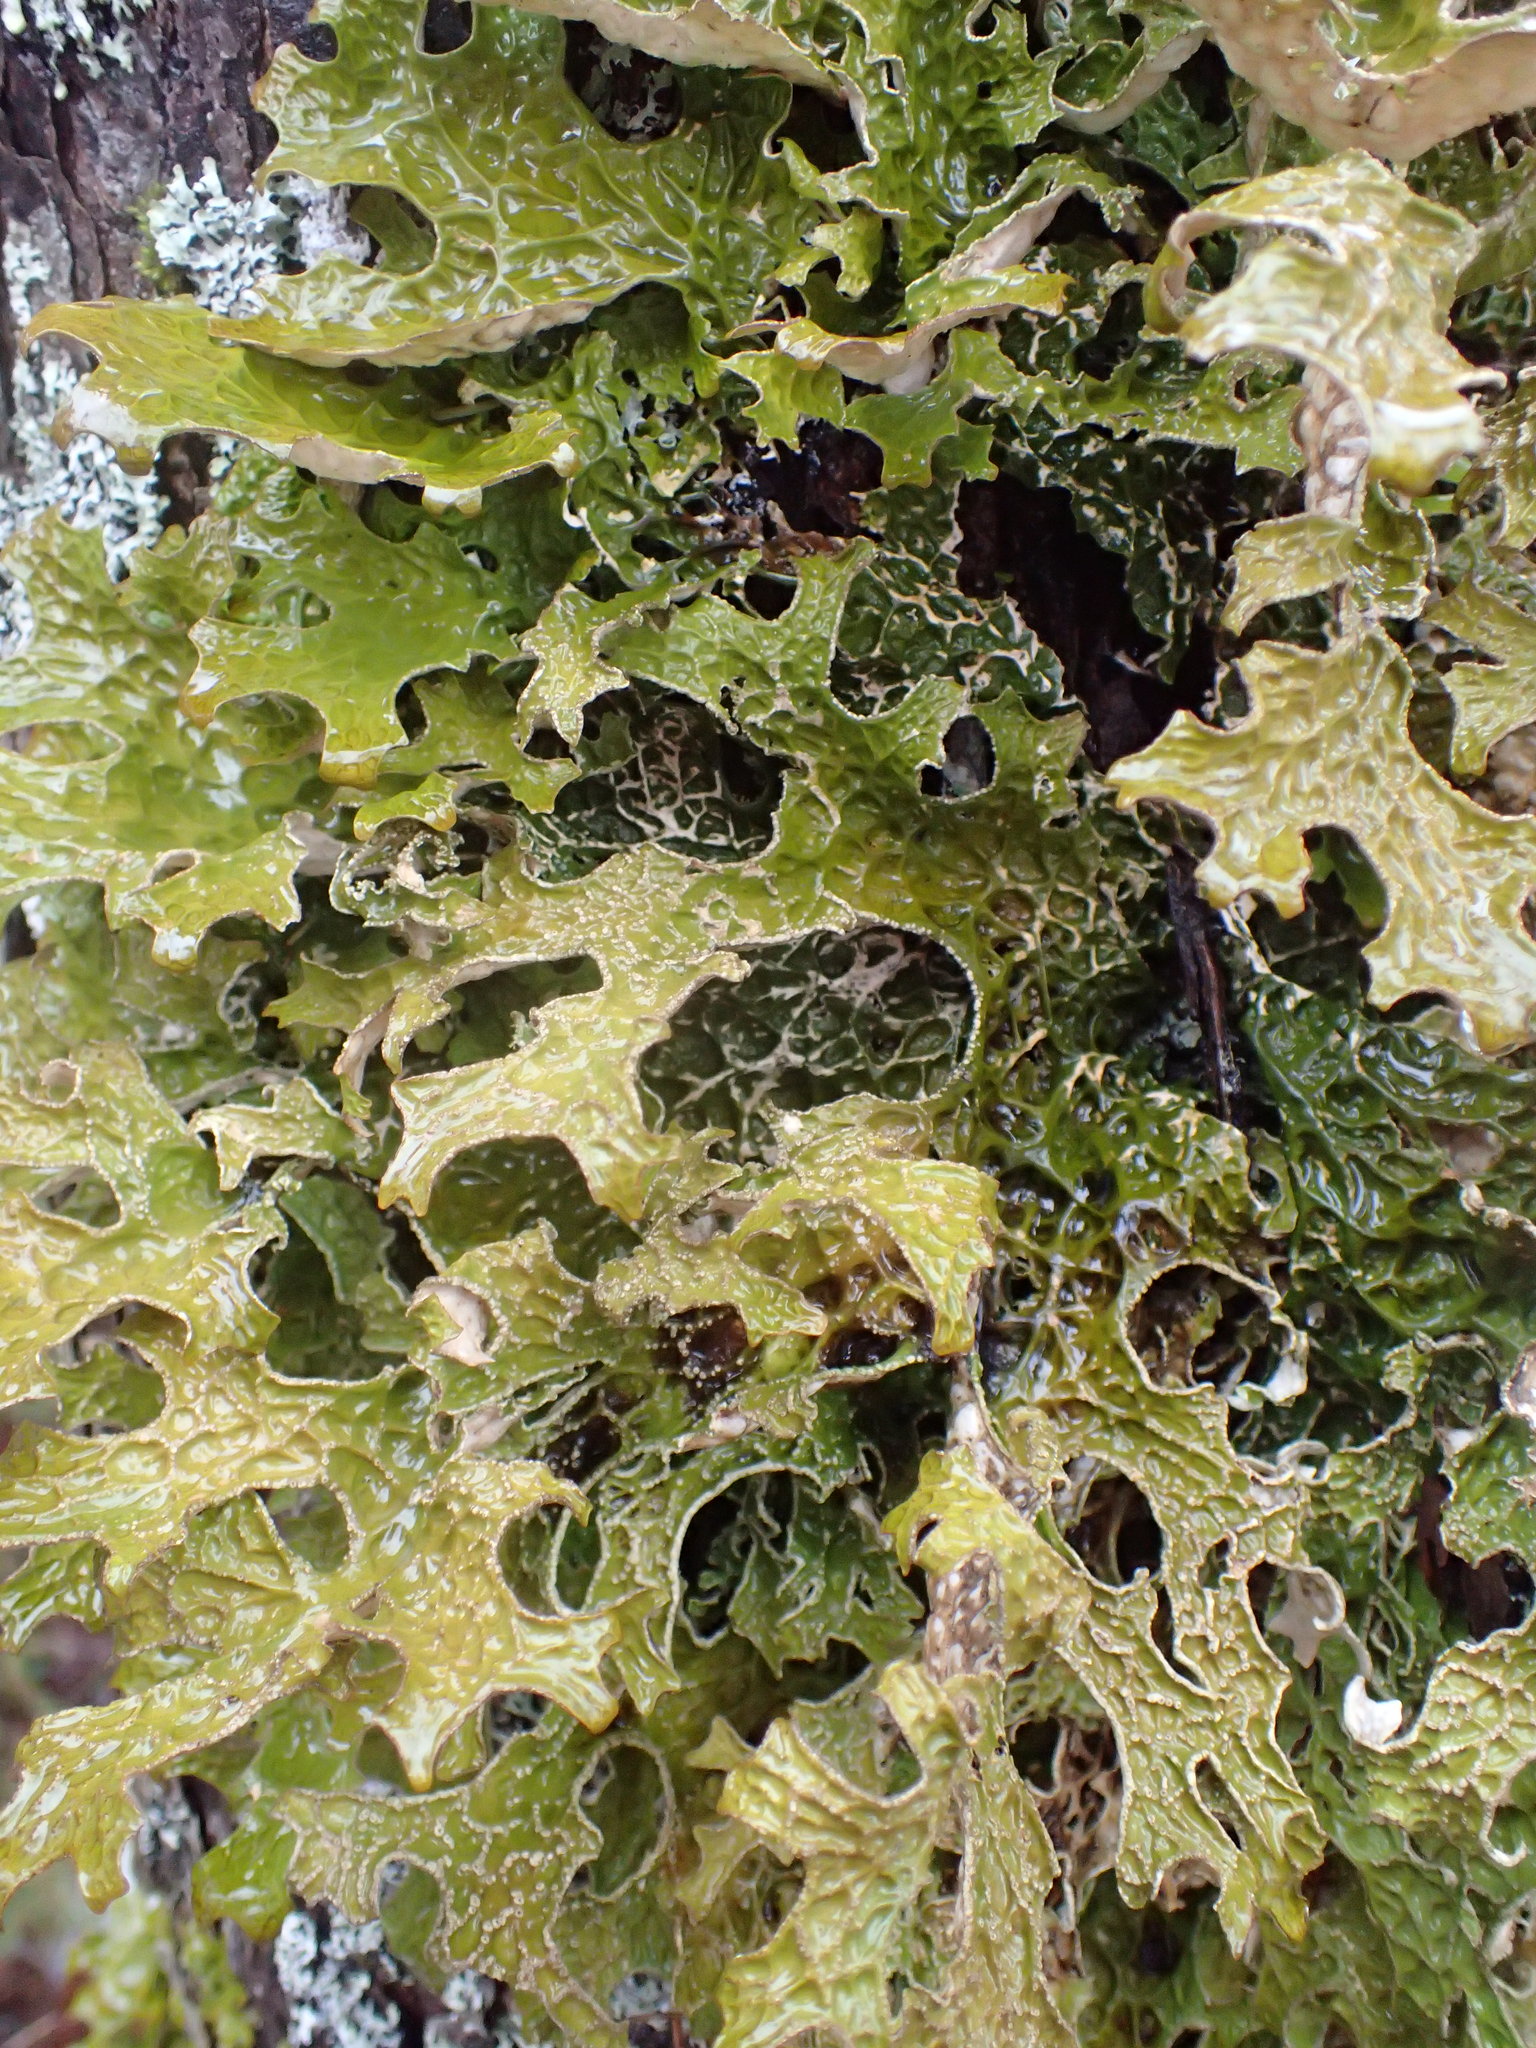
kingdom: Fungi
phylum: Ascomycota
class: Lecanoromycetes
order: Peltigerales
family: Lobariaceae
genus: Lobaria
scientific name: Lobaria pulmonaria
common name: Lungwort
